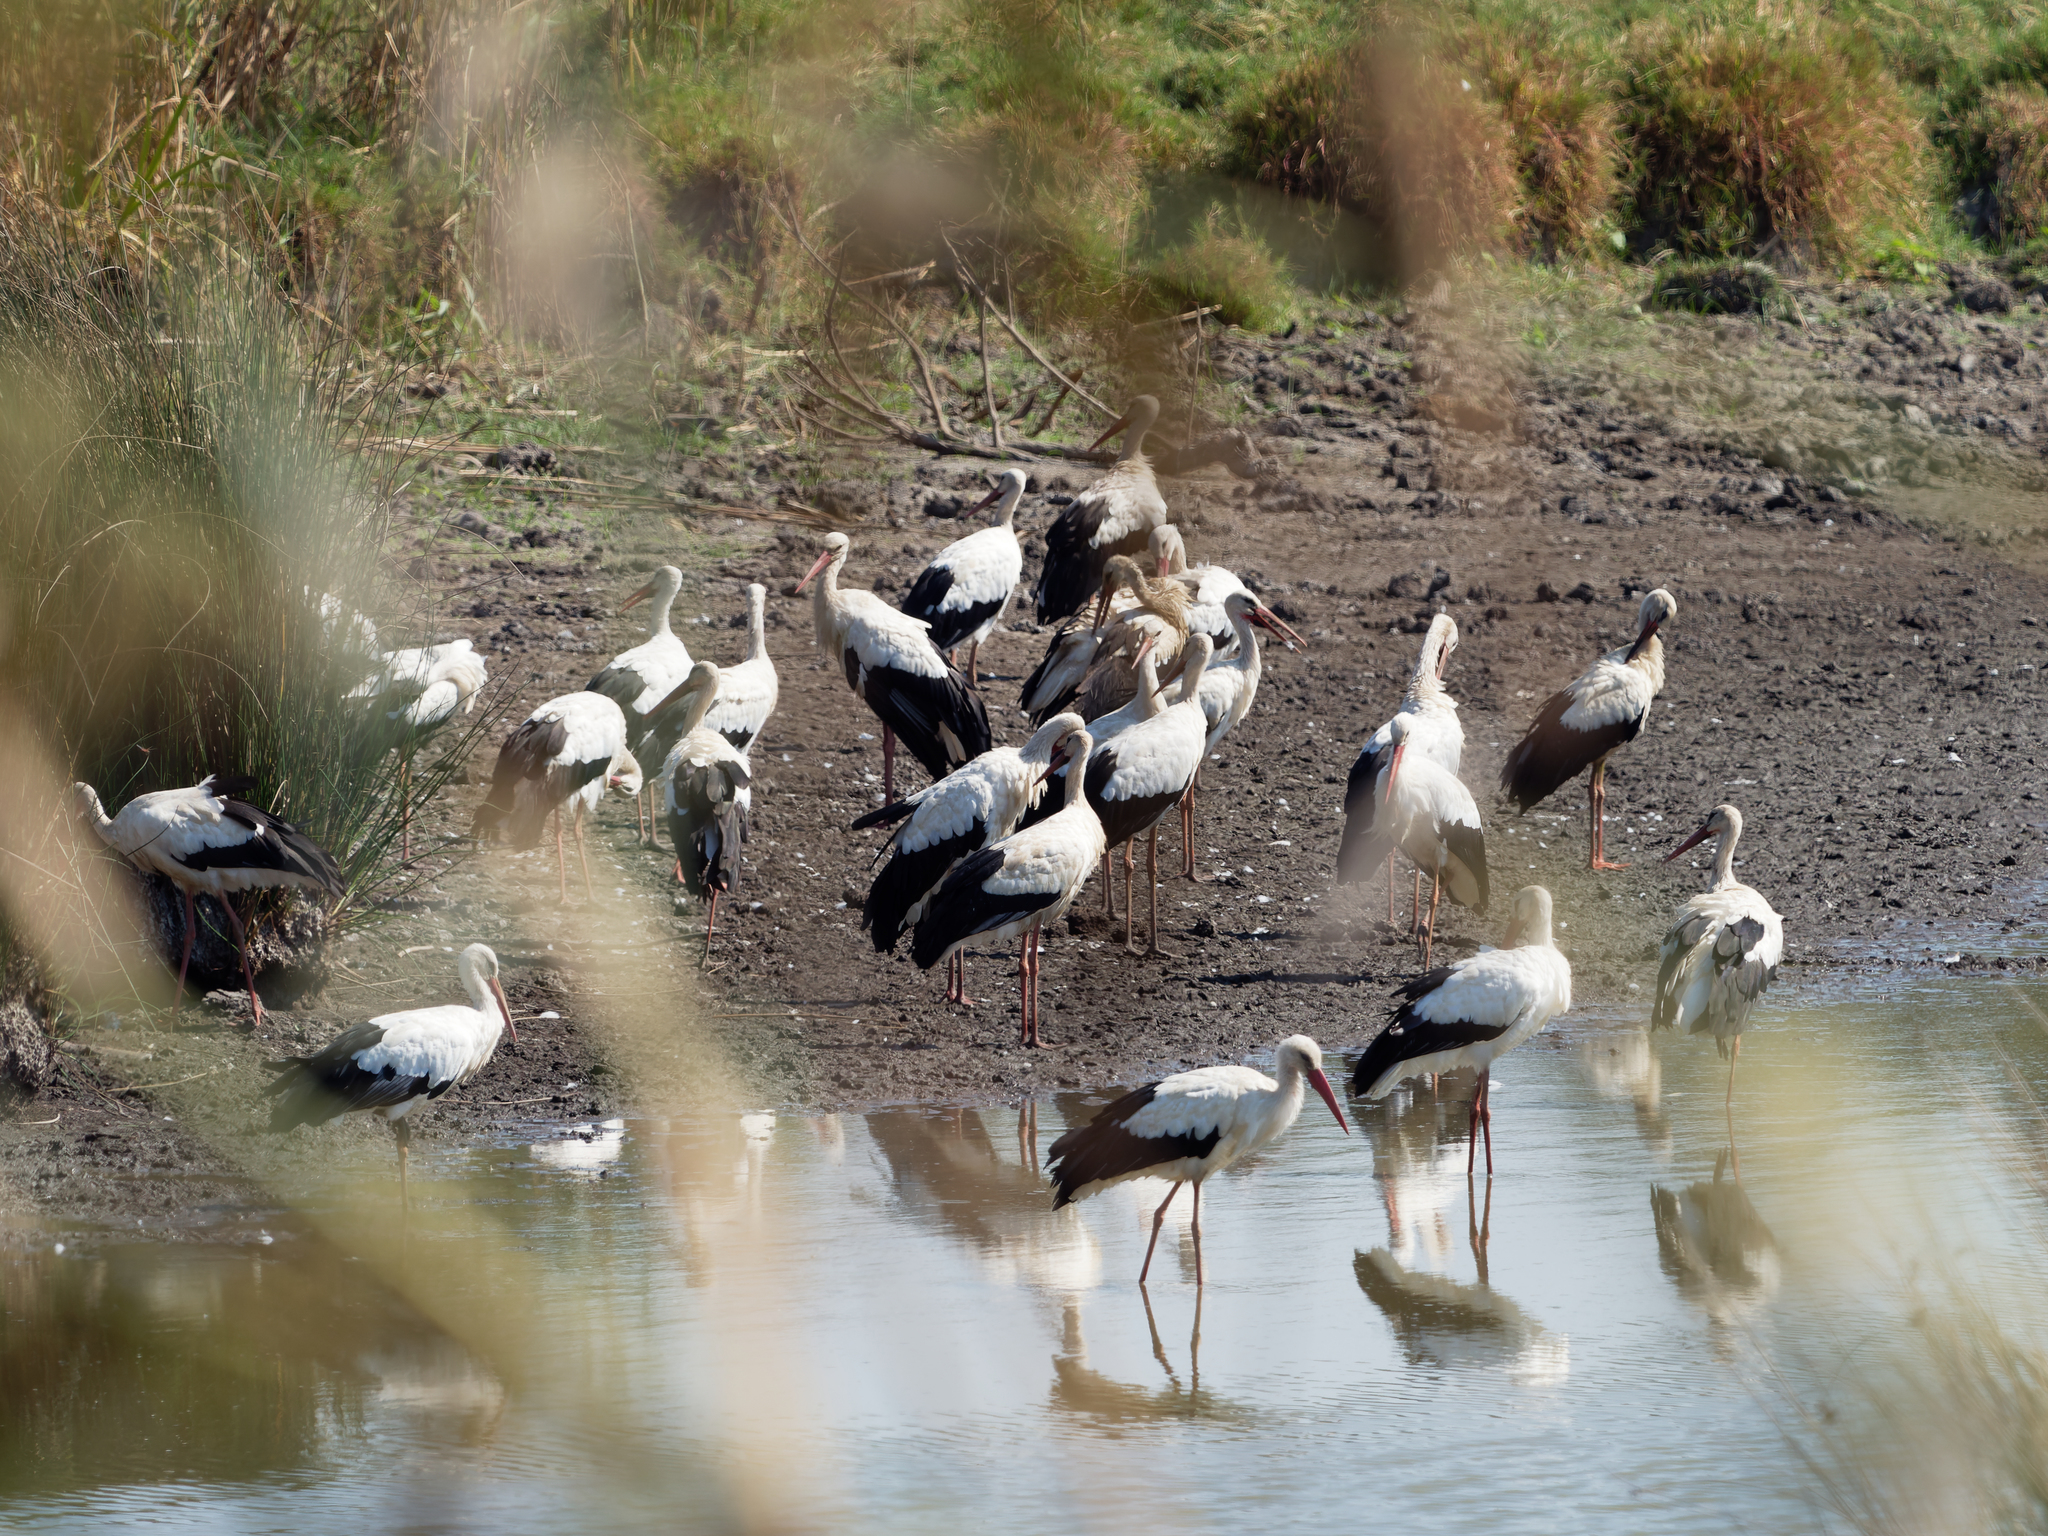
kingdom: Animalia
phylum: Chordata
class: Aves
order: Ciconiiformes
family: Ciconiidae
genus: Ciconia
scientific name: Ciconia ciconia
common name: White stork
